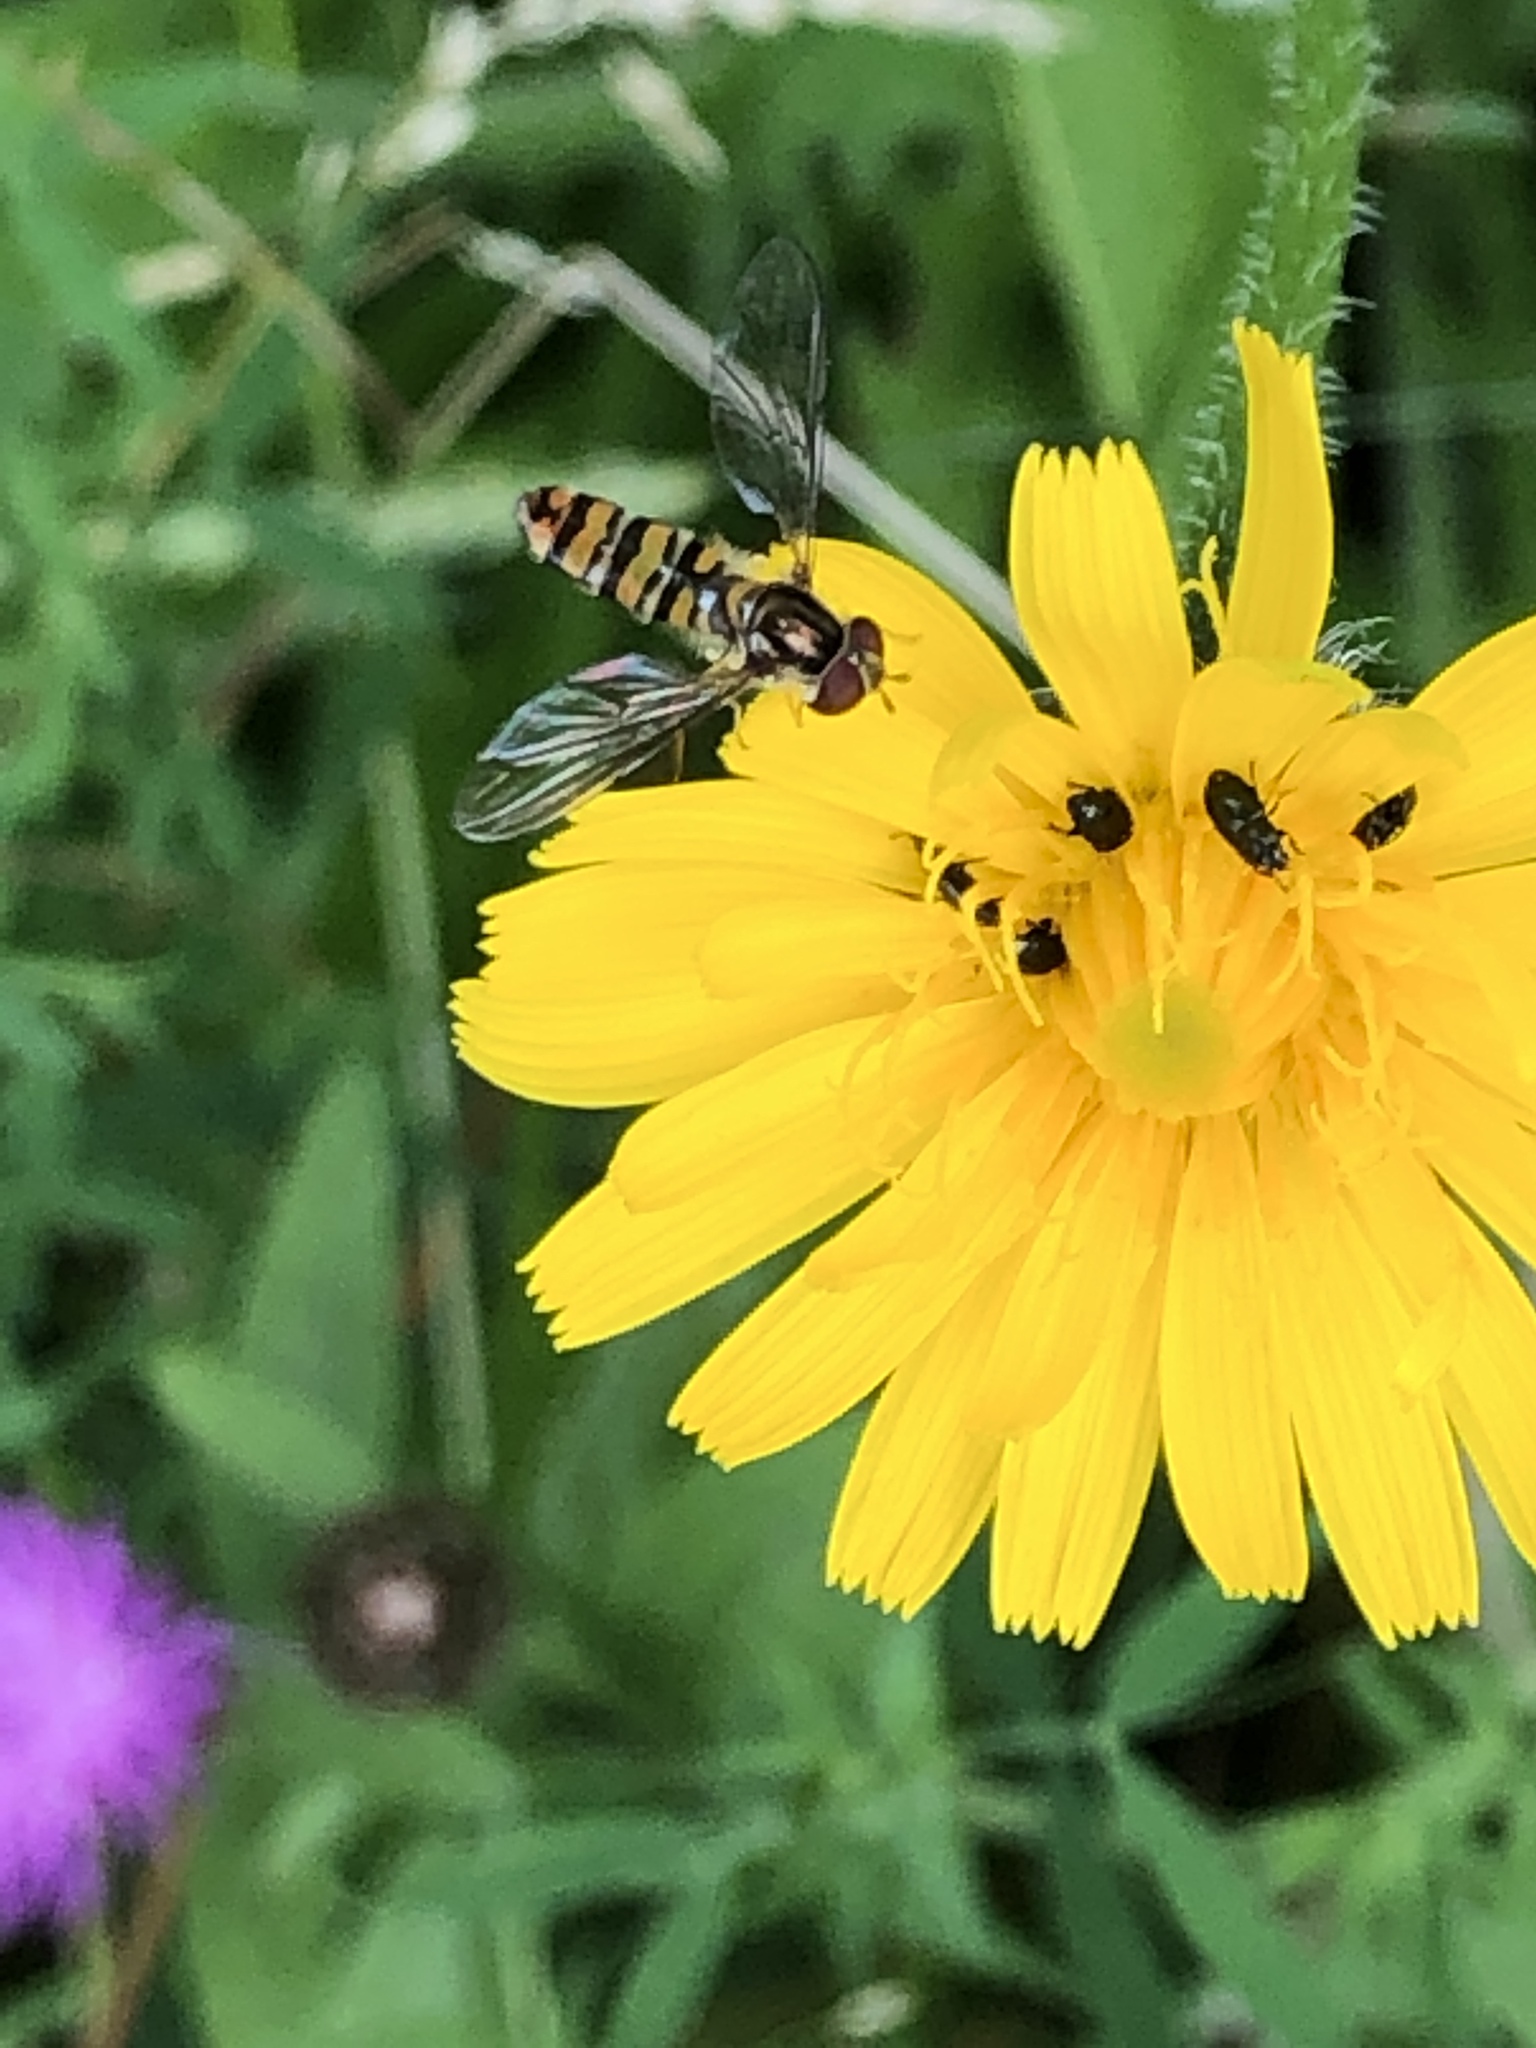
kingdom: Animalia
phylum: Arthropoda
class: Insecta
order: Diptera
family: Syrphidae
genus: Episyrphus
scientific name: Episyrphus balteatus
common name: Marmalade hoverfly
